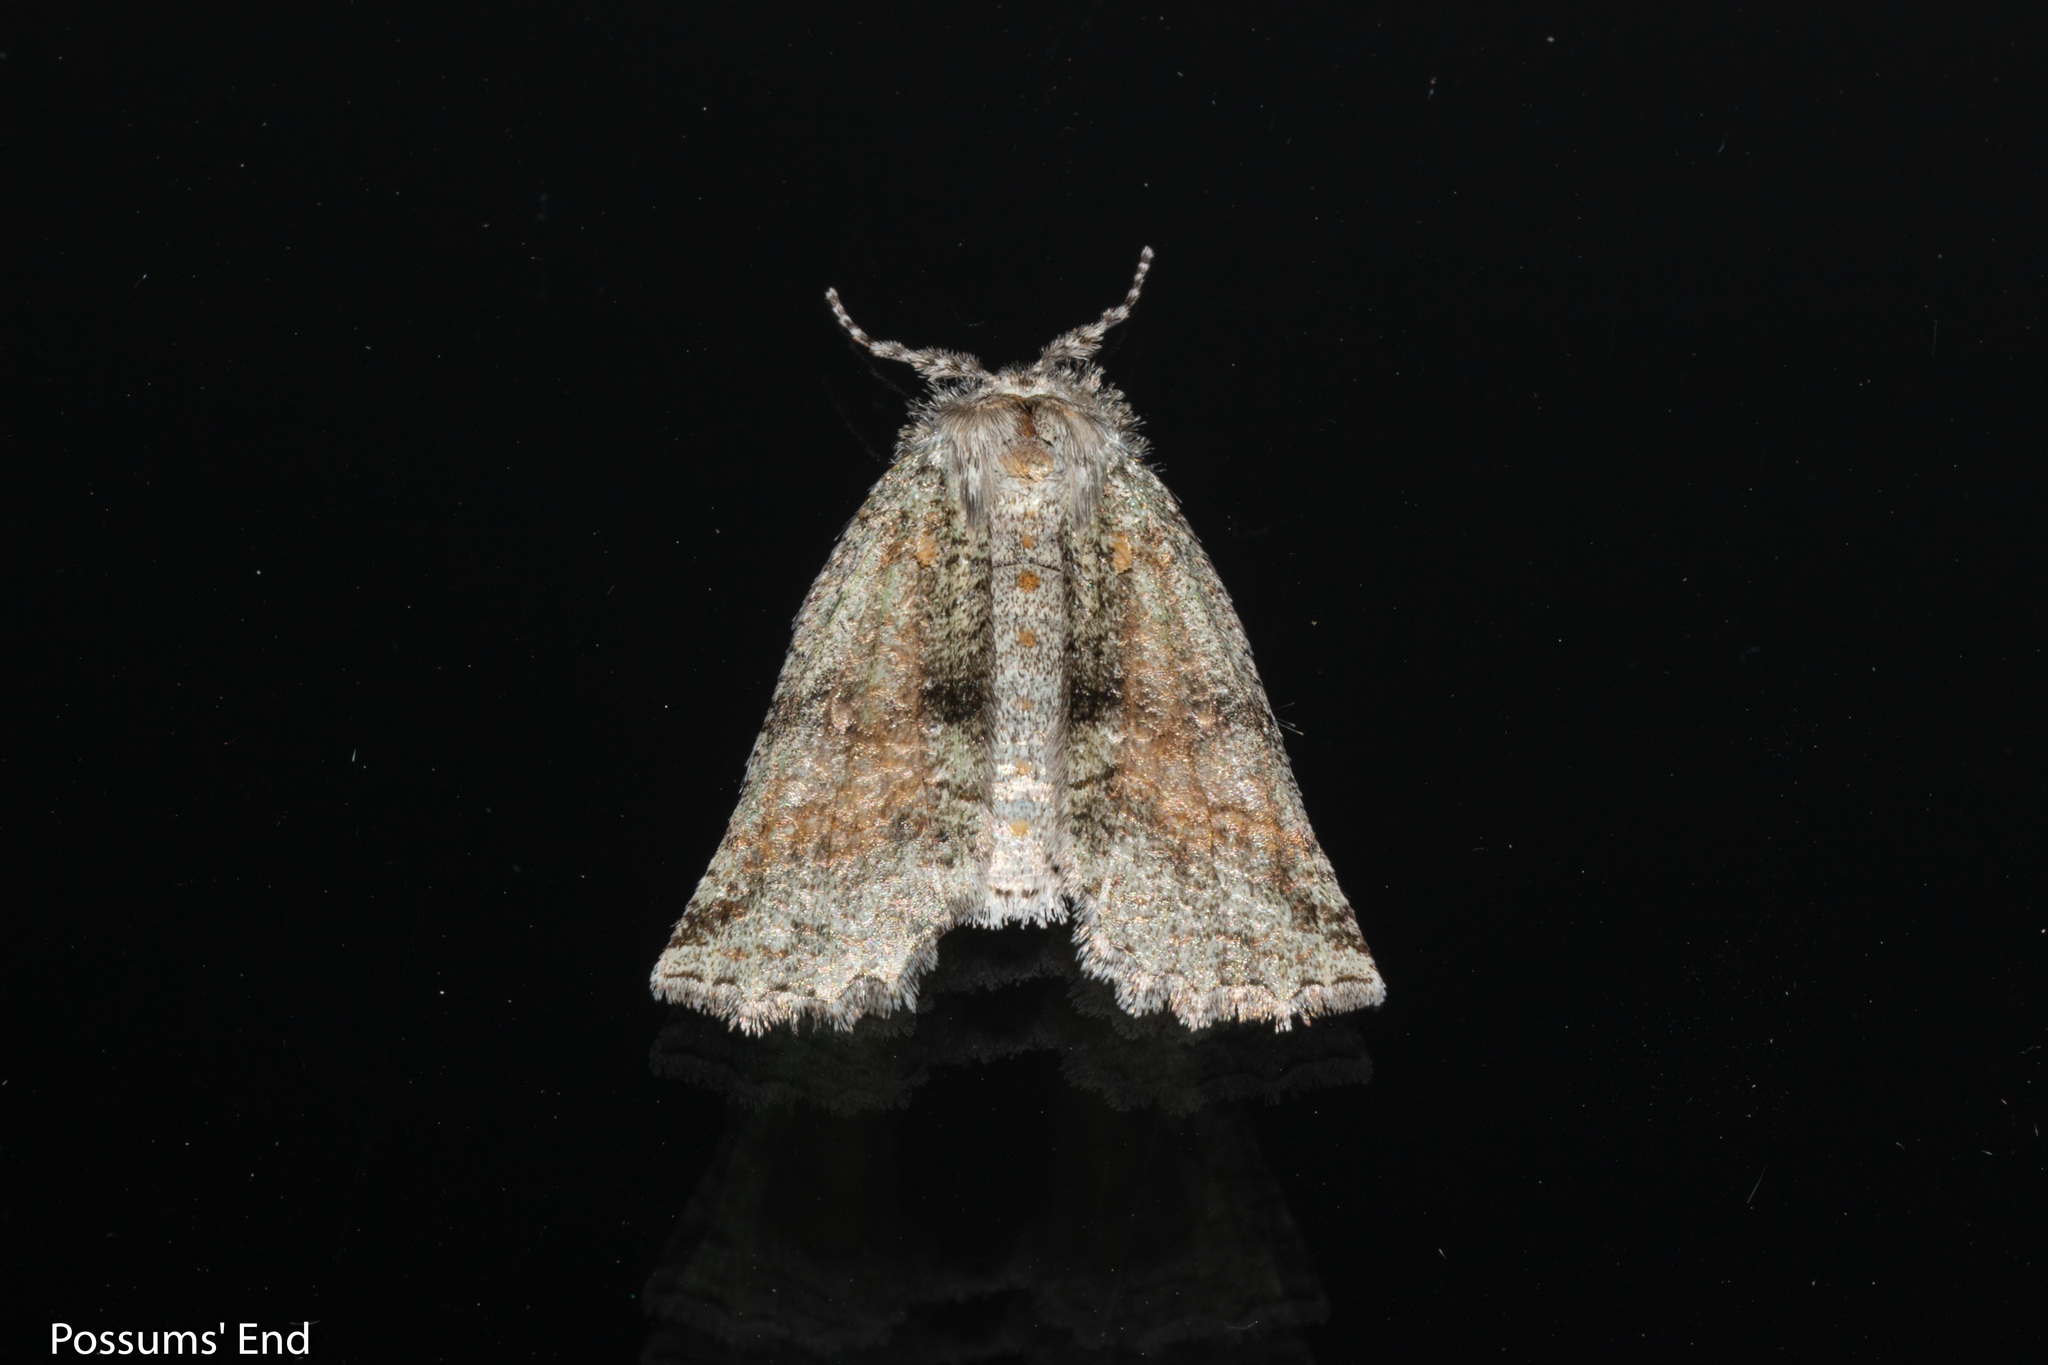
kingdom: Animalia
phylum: Arthropoda
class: Insecta
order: Lepidoptera
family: Geometridae
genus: Declana
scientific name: Declana floccosa
